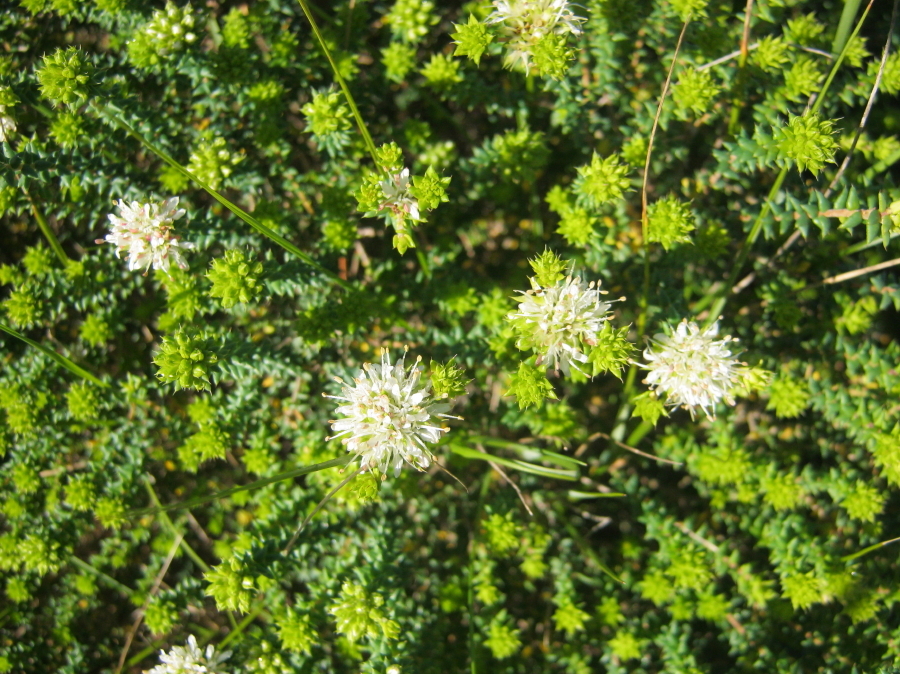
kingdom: Plantae
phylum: Tracheophyta
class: Magnoliopsida
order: Sapindales
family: Rutaceae
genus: Agathosma
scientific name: Agathosma apiculata
